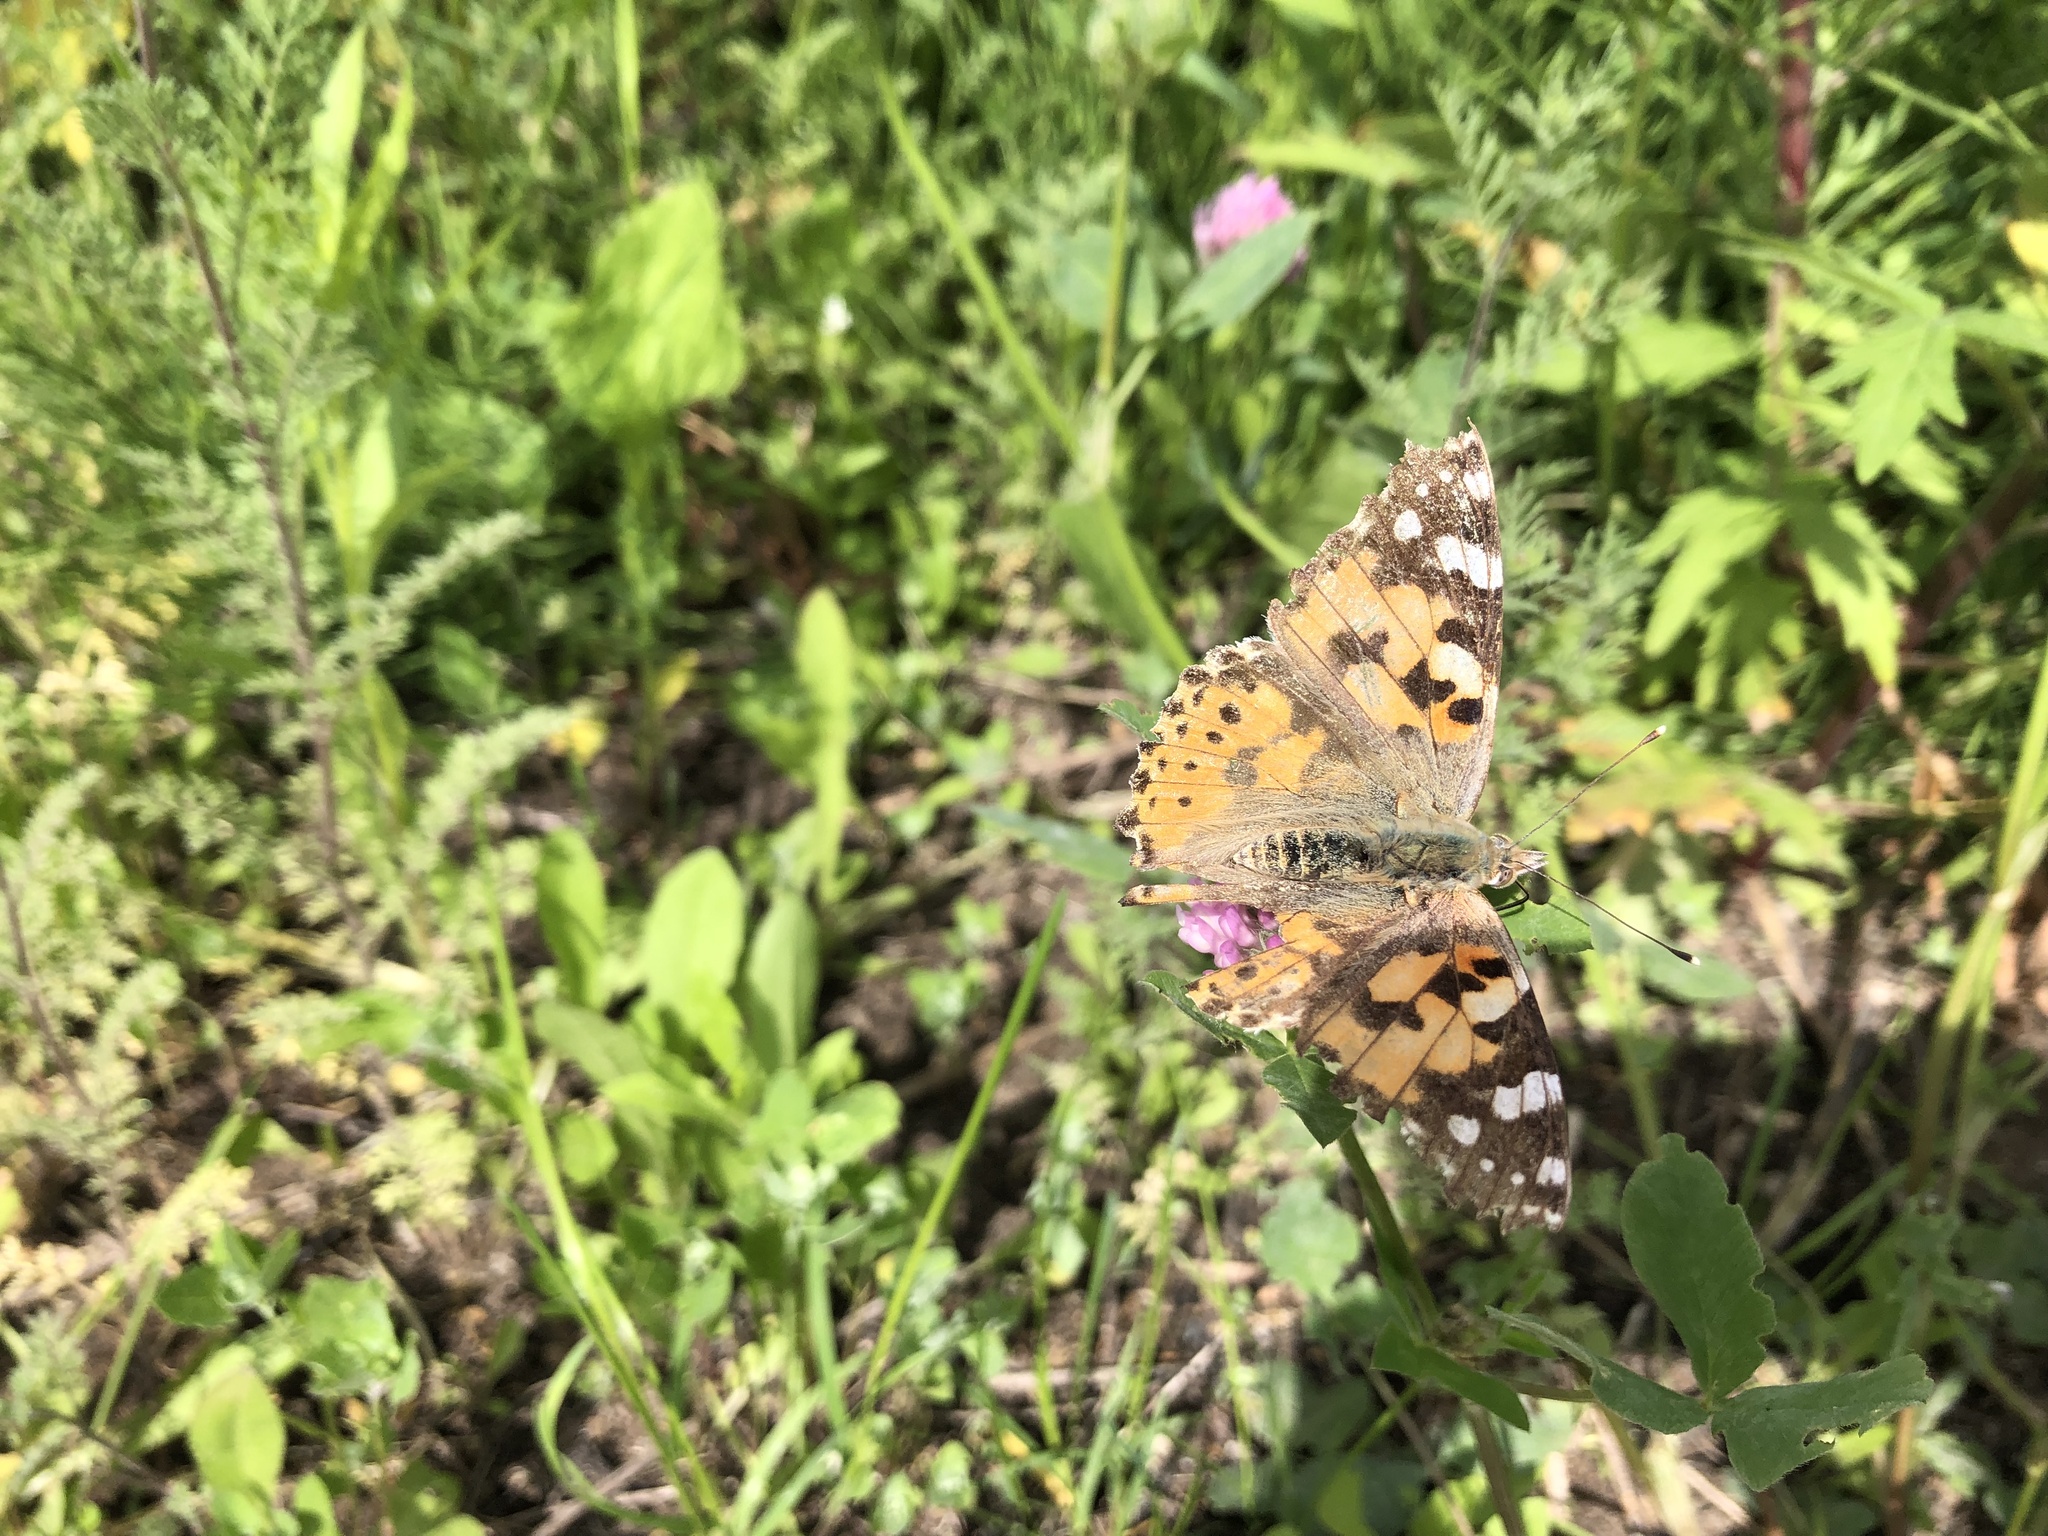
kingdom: Animalia
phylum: Arthropoda
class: Insecta
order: Lepidoptera
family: Nymphalidae
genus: Vanessa
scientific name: Vanessa cardui
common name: Painted lady
